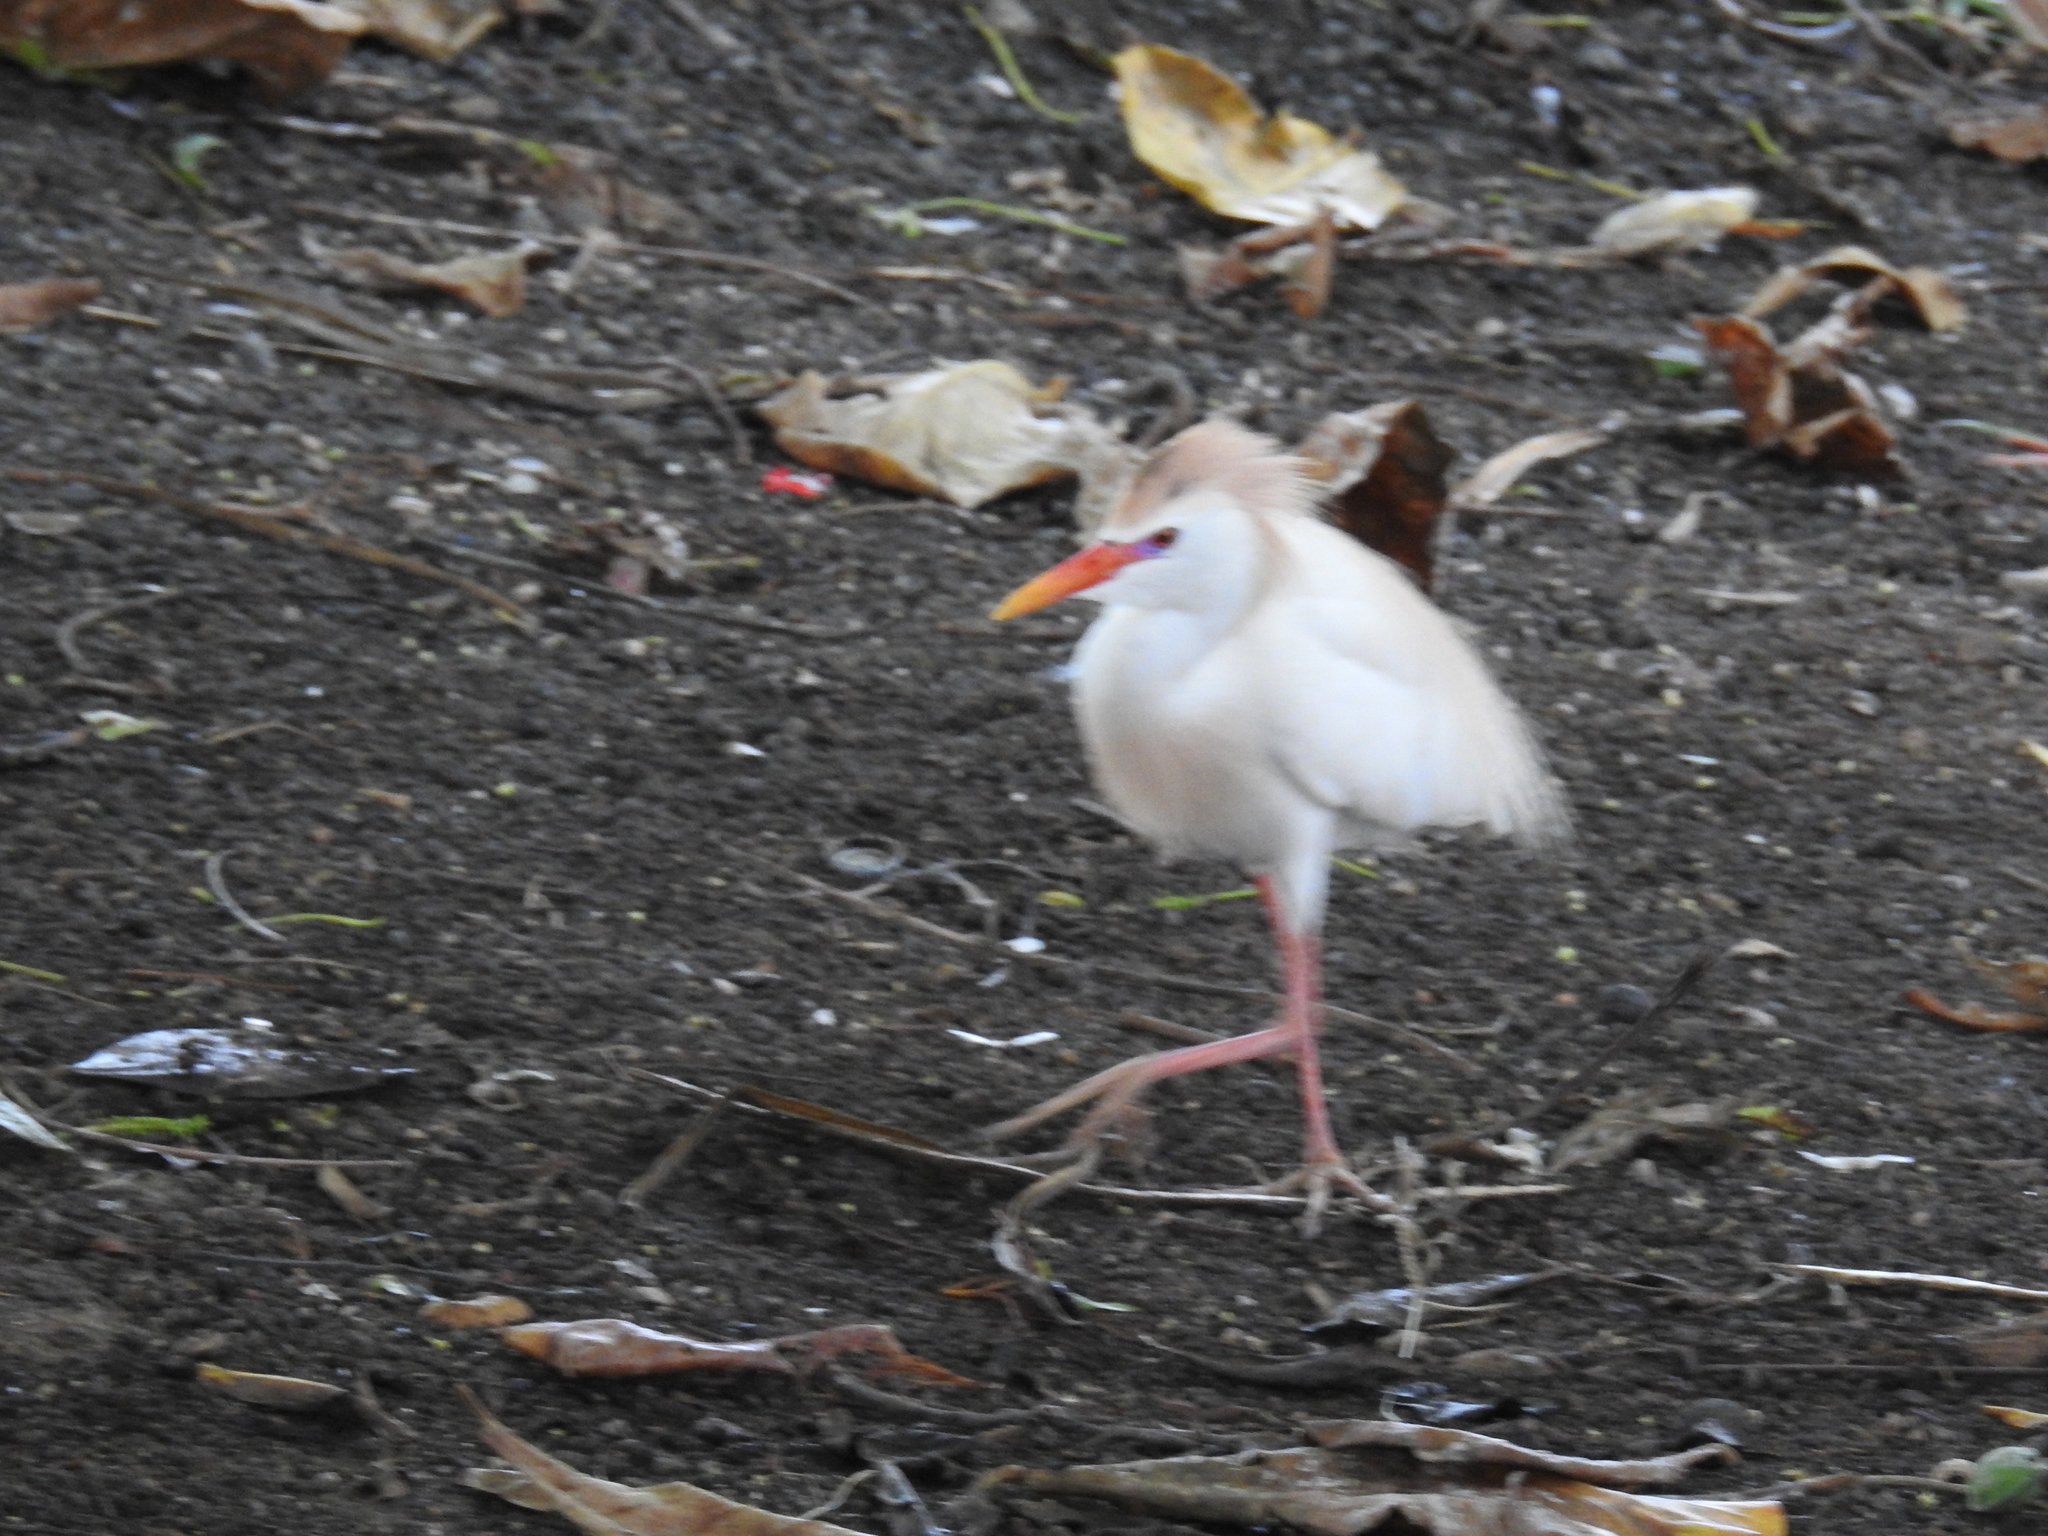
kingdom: Animalia
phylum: Chordata
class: Aves
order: Pelecaniformes
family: Ardeidae
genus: Bubulcus
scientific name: Bubulcus ibis
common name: Cattle egret
